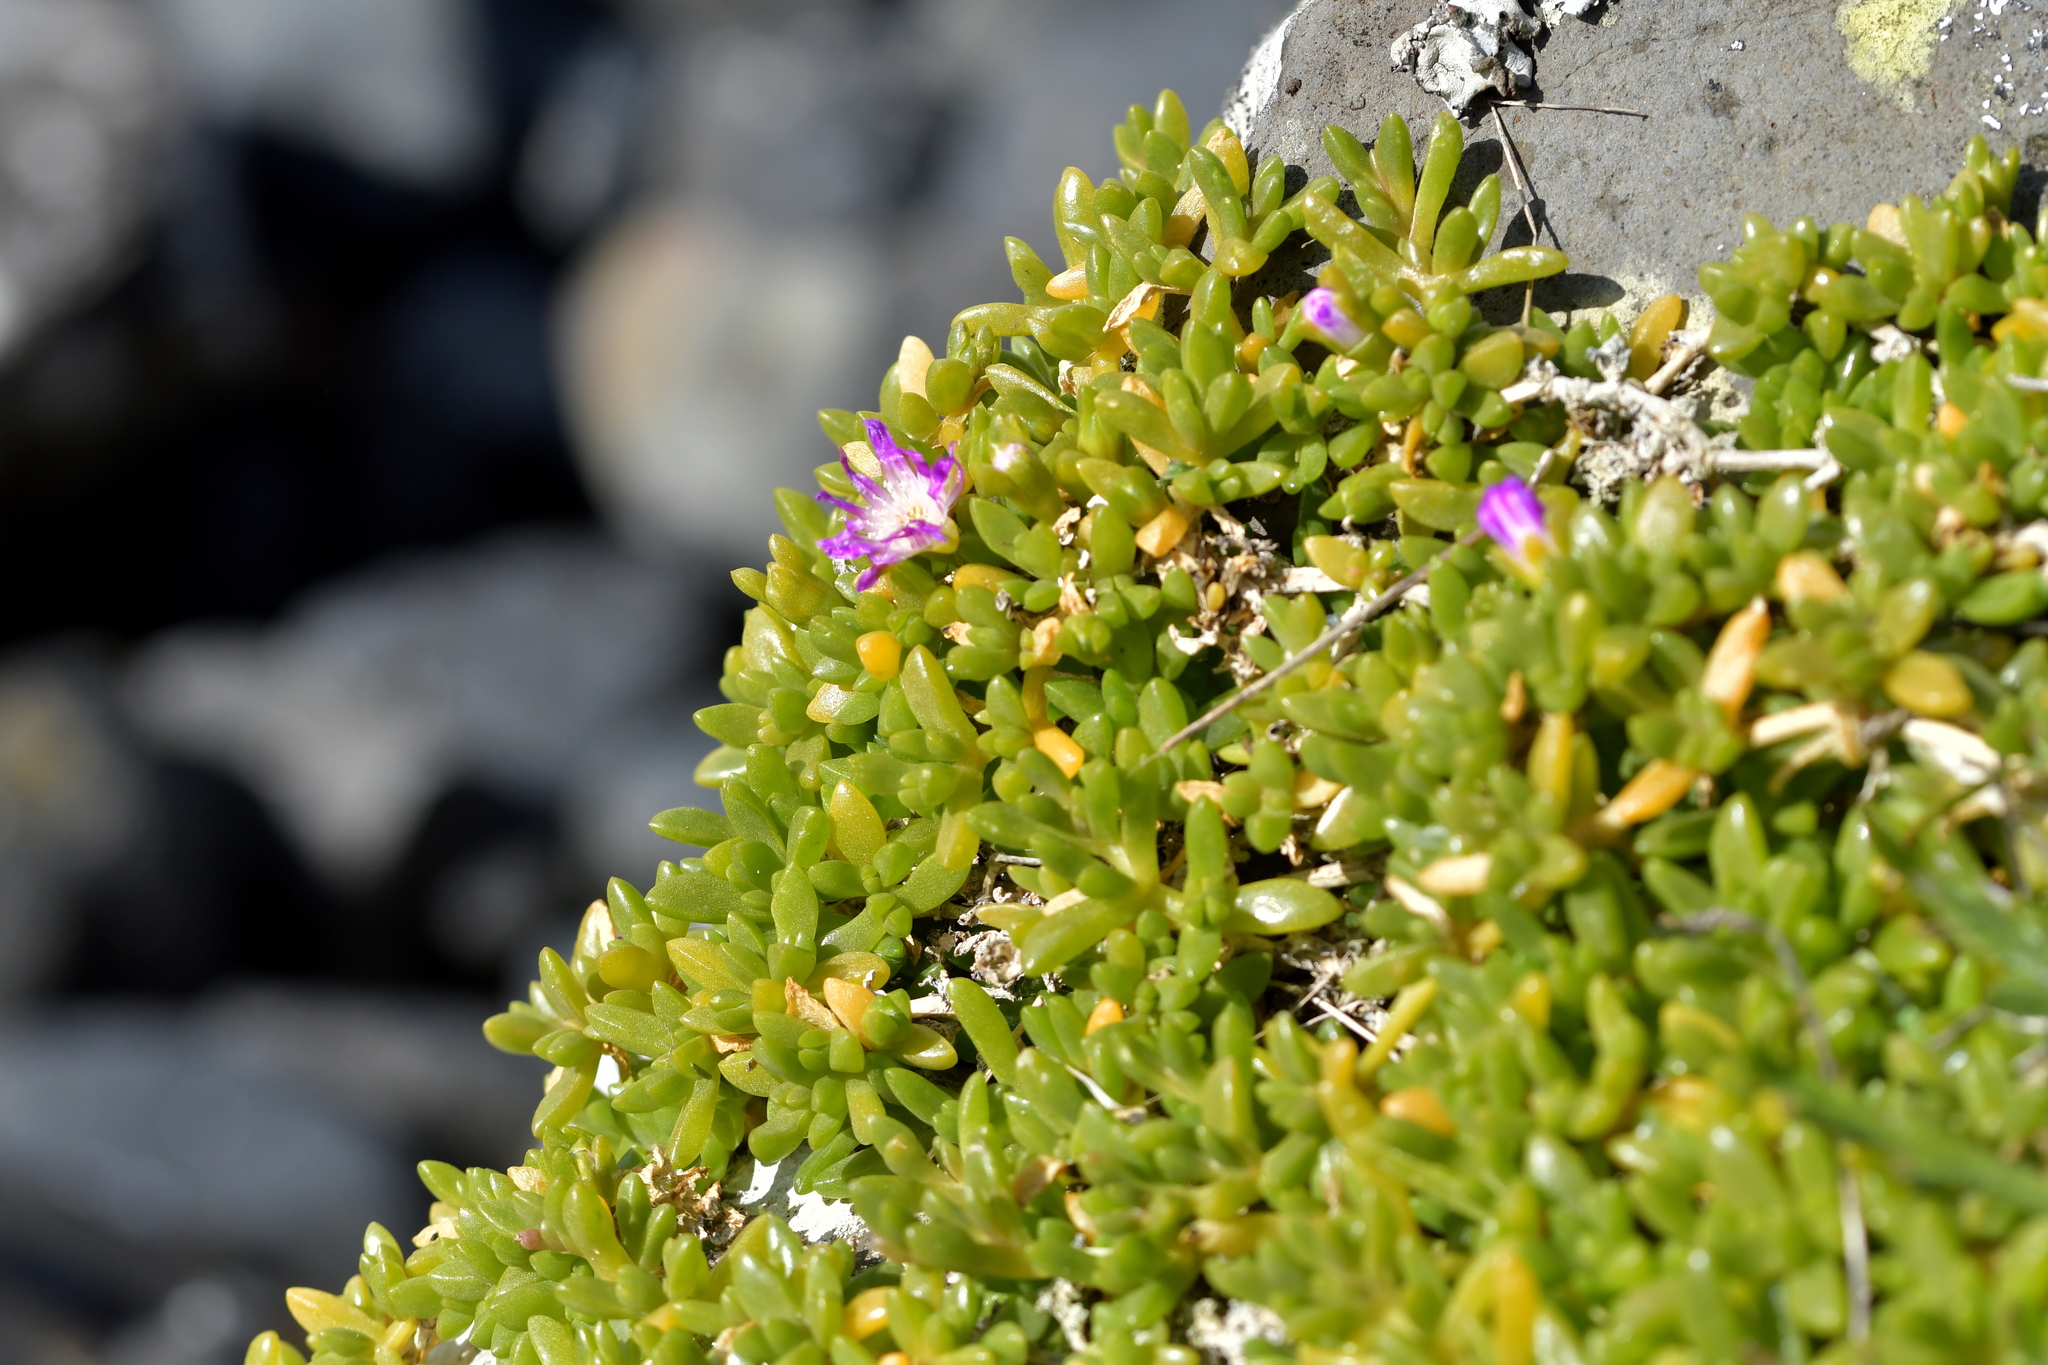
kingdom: Plantae
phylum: Tracheophyta
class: Magnoliopsida
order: Caryophyllales
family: Aizoaceae
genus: Disphyma
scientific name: Disphyma papillatum
